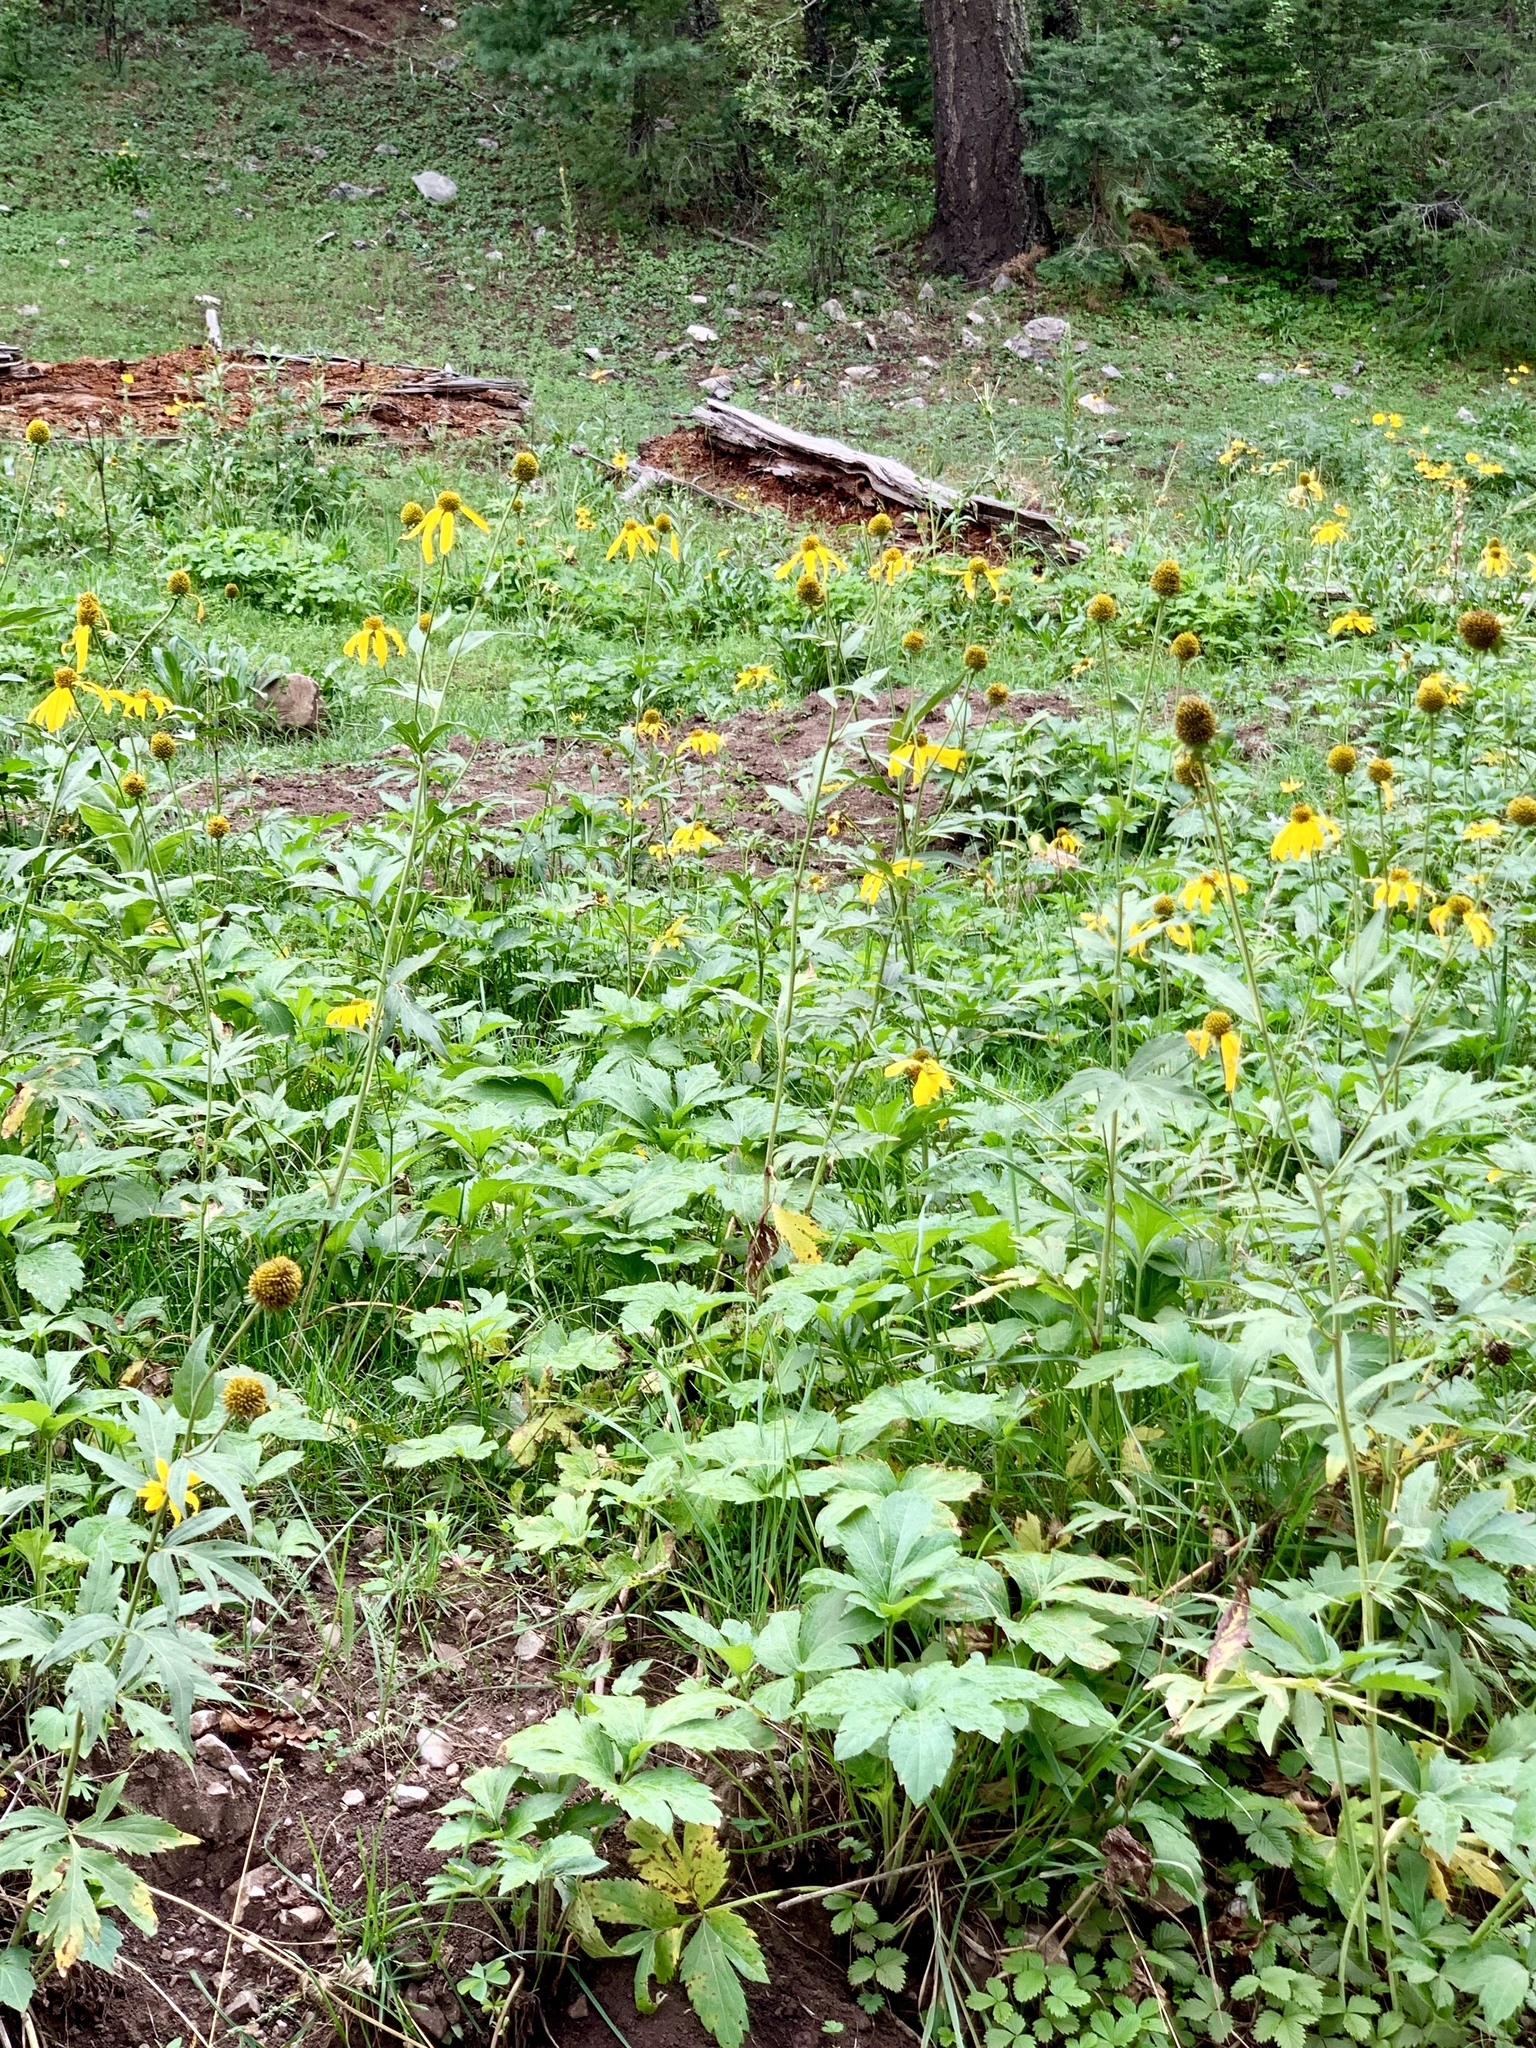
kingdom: Plantae
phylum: Tracheophyta
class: Magnoliopsida
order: Asterales
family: Asteraceae
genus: Rudbeckia
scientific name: Rudbeckia laciniata
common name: Coneflower
